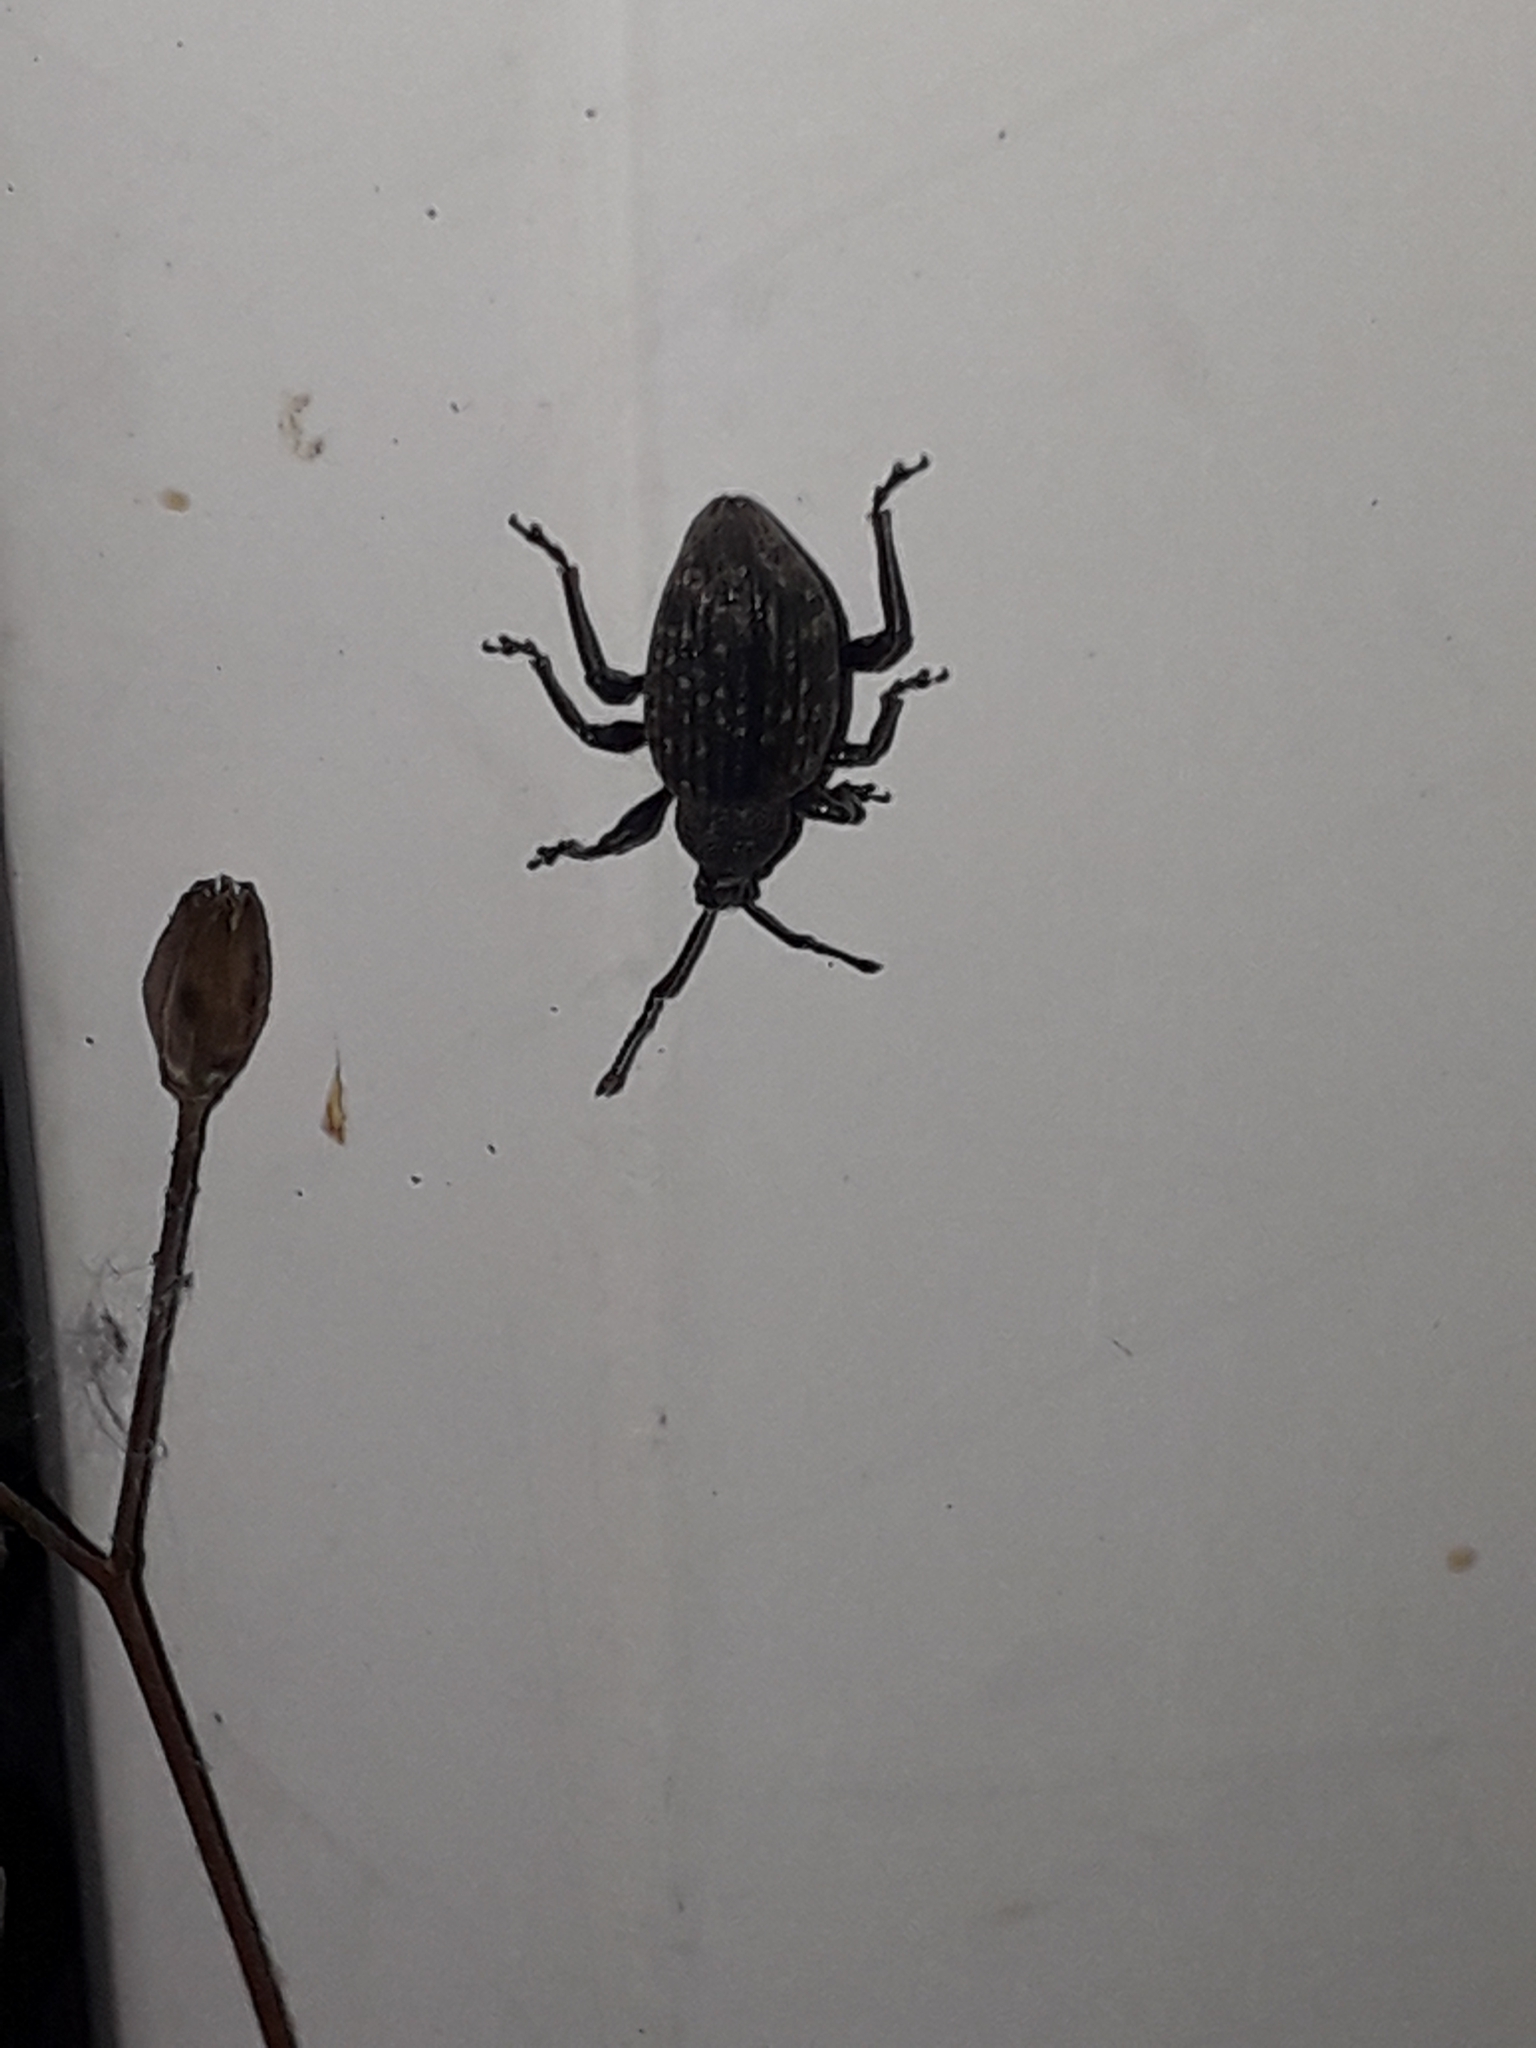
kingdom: Animalia
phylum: Arthropoda
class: Insecta
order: Coleoptera
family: Curculionidae
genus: Otiorhynchus
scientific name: Otiorhynchus sulcatus
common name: Black vine weevil
